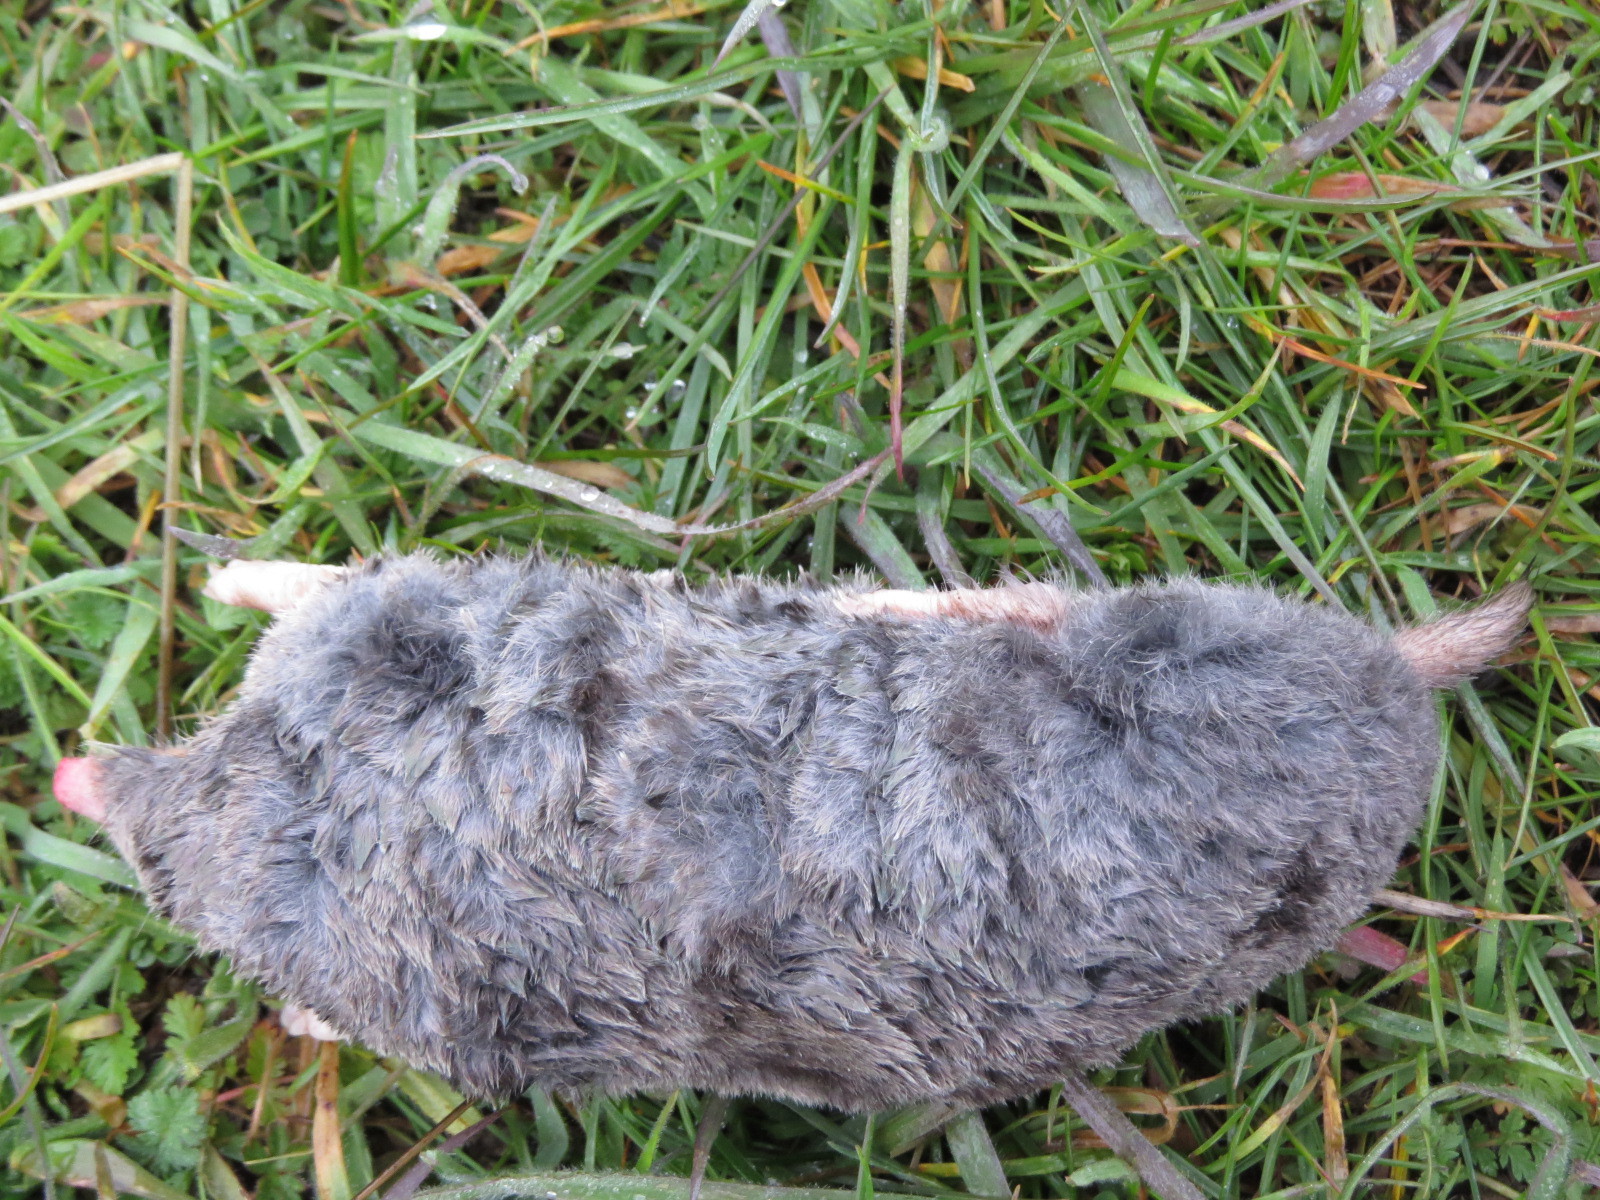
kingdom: Animalia
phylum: Chordata
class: Mammalia
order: Soricomorpha
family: Talpidae
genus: Scapanus
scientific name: Scapanus latimanus
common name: Broad-footed mole
